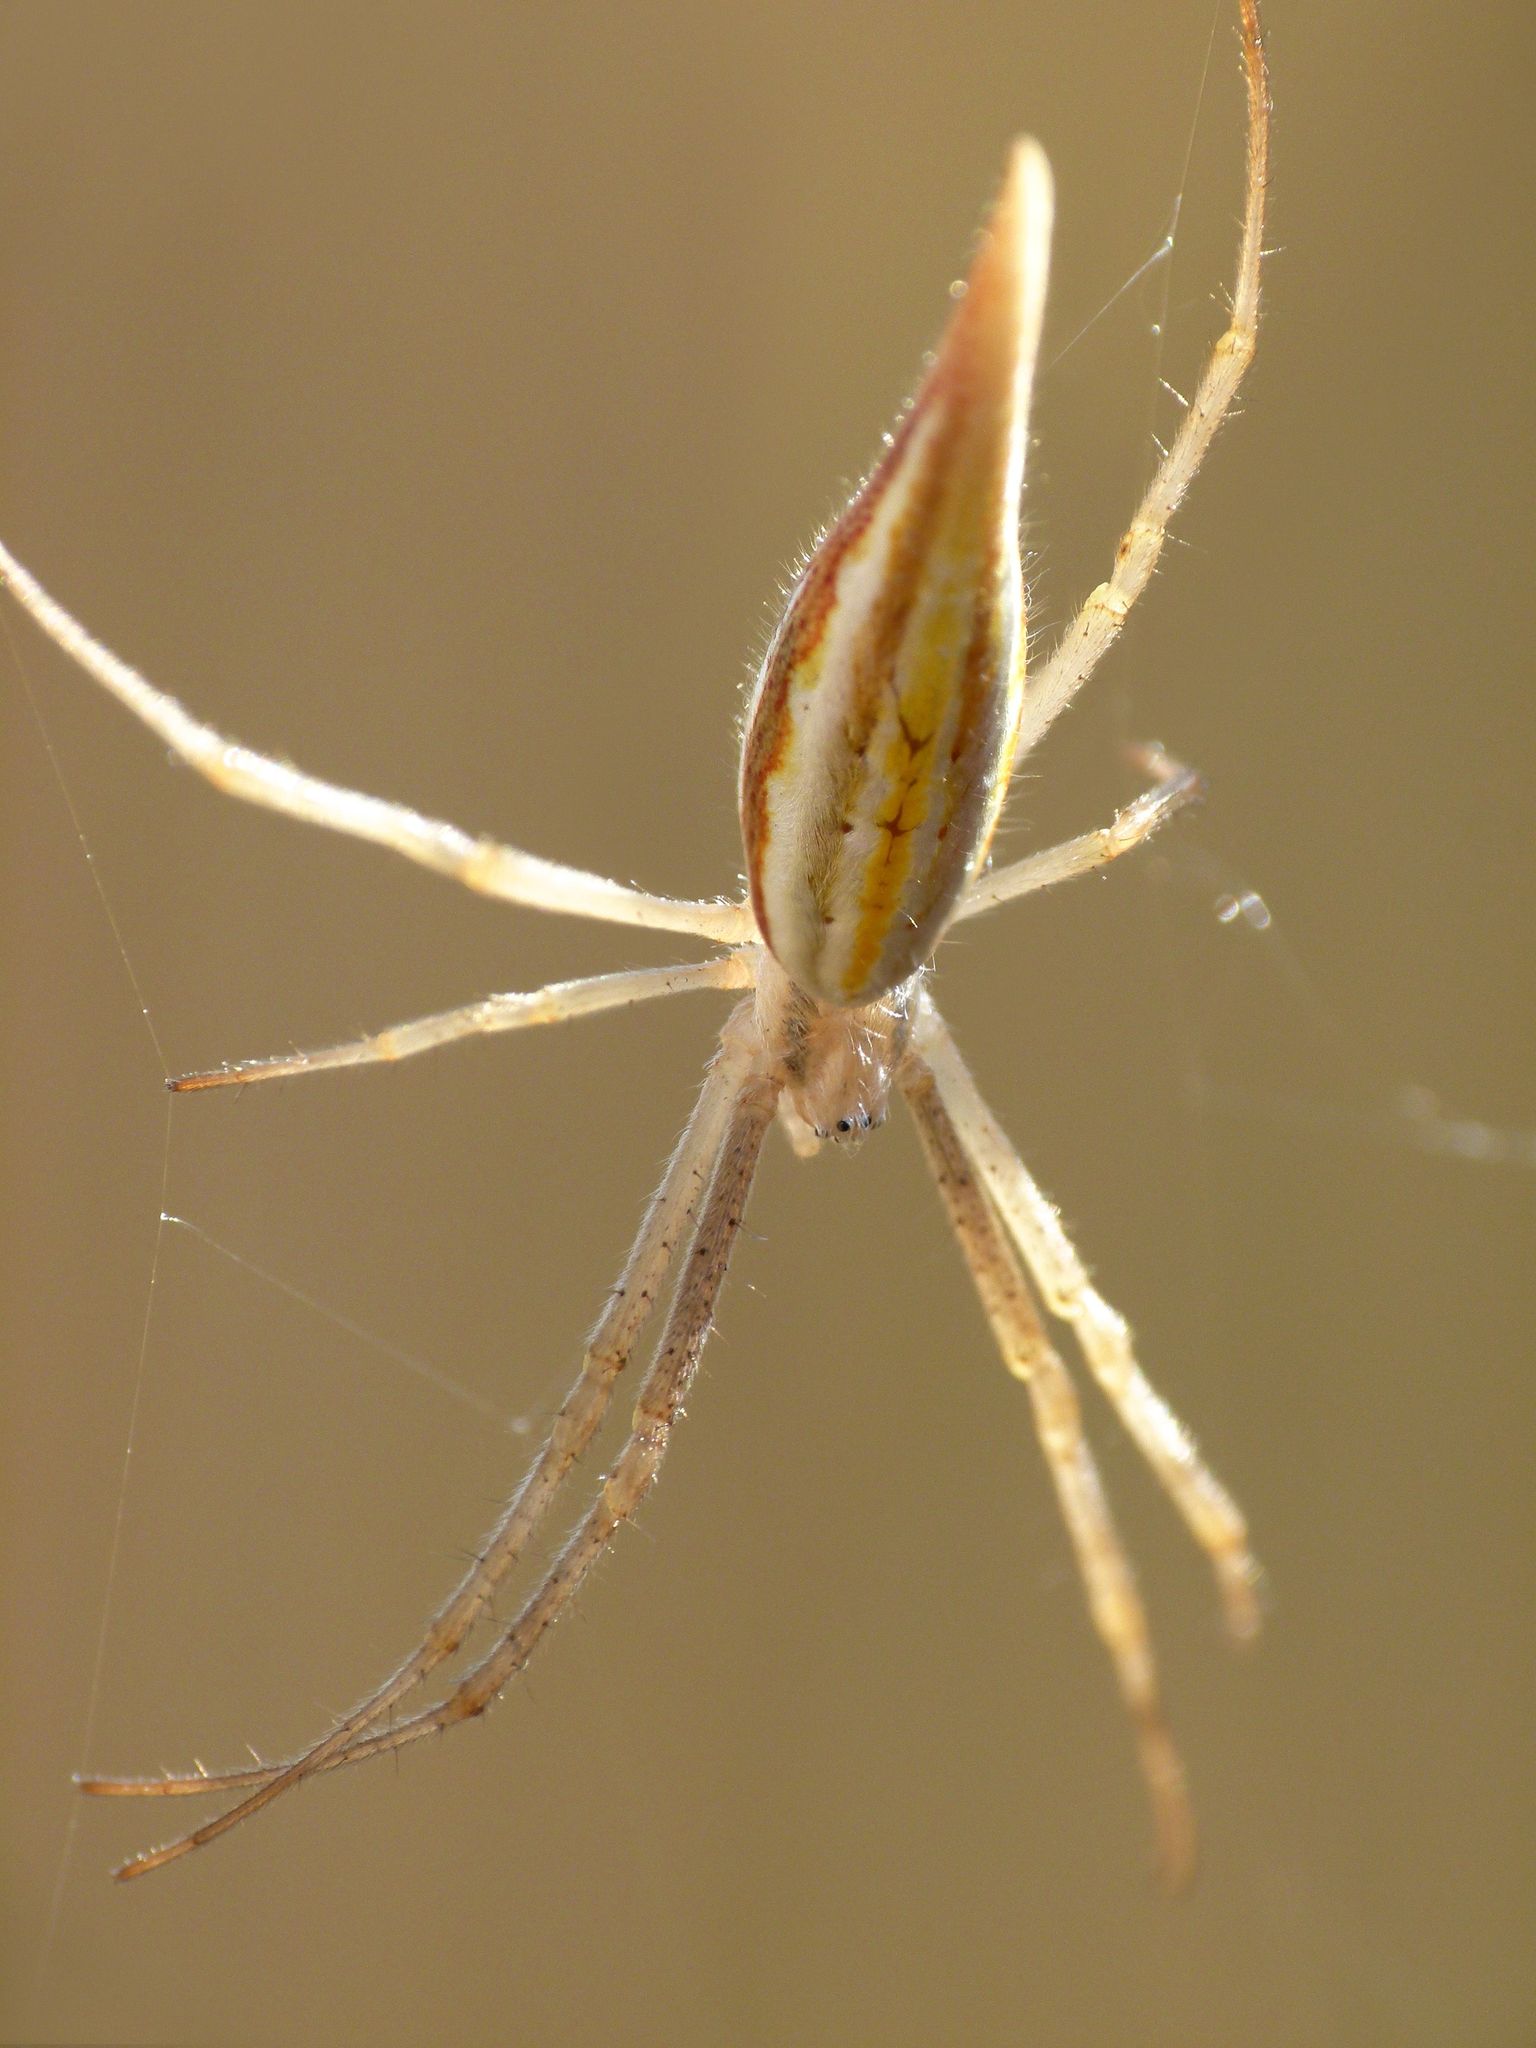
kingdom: Animalia
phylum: Arthropoda
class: Arachnida
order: Araneae
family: Araneidae
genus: Argiope
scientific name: Argiope protensa
